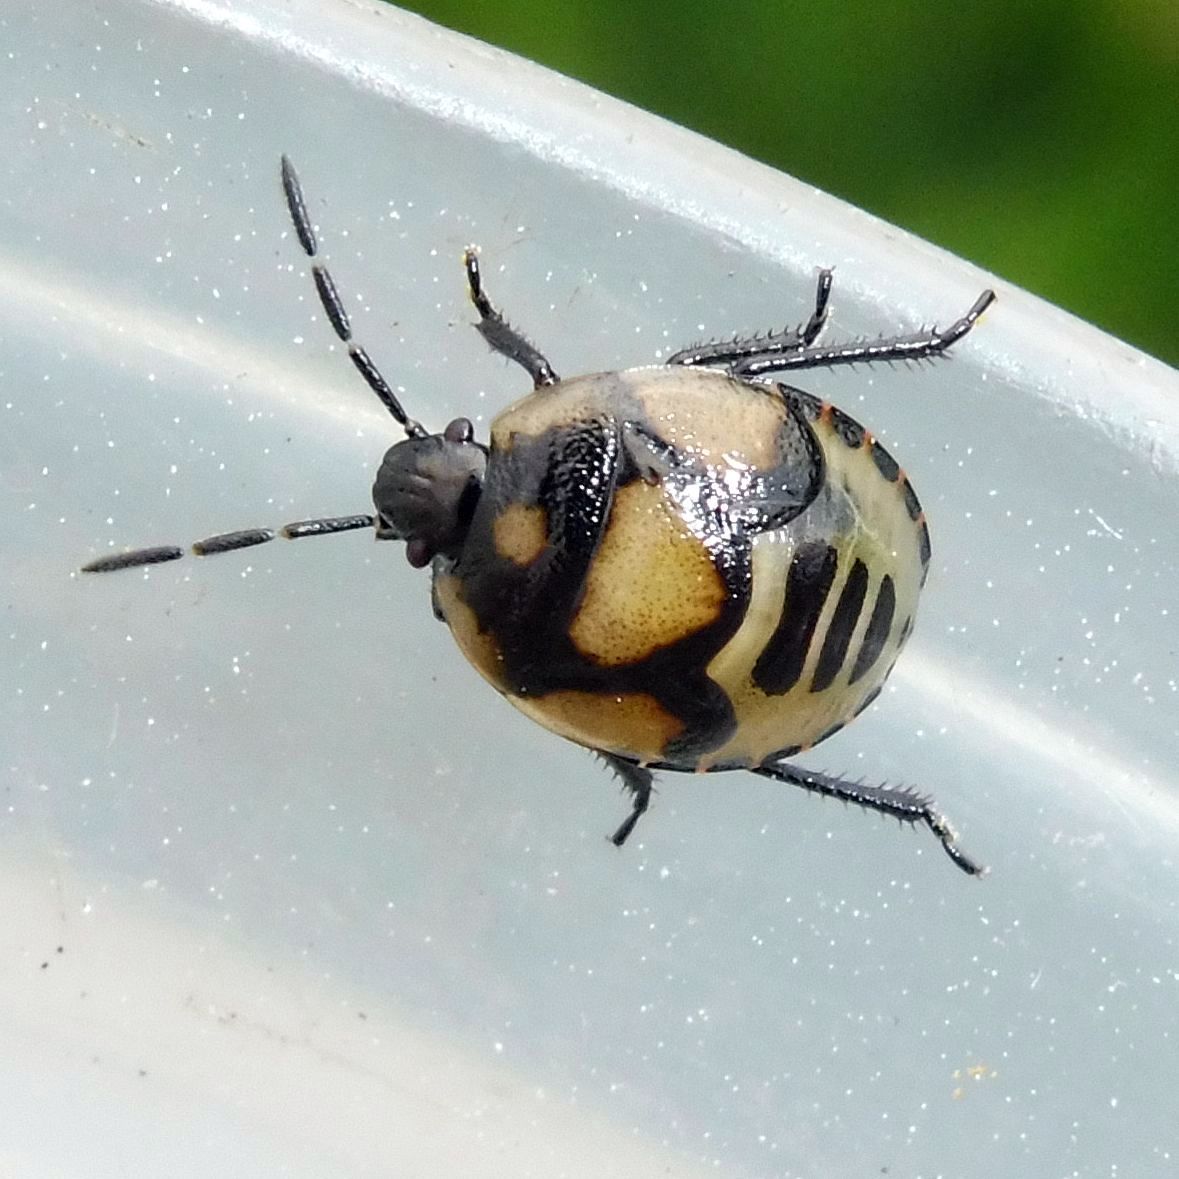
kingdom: Animalia
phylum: Arthropoda
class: Insecta
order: Hemiptera
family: Cydnidae
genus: Tritomegas
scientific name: Tritomegas bicolor
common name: Pied shieldbug
